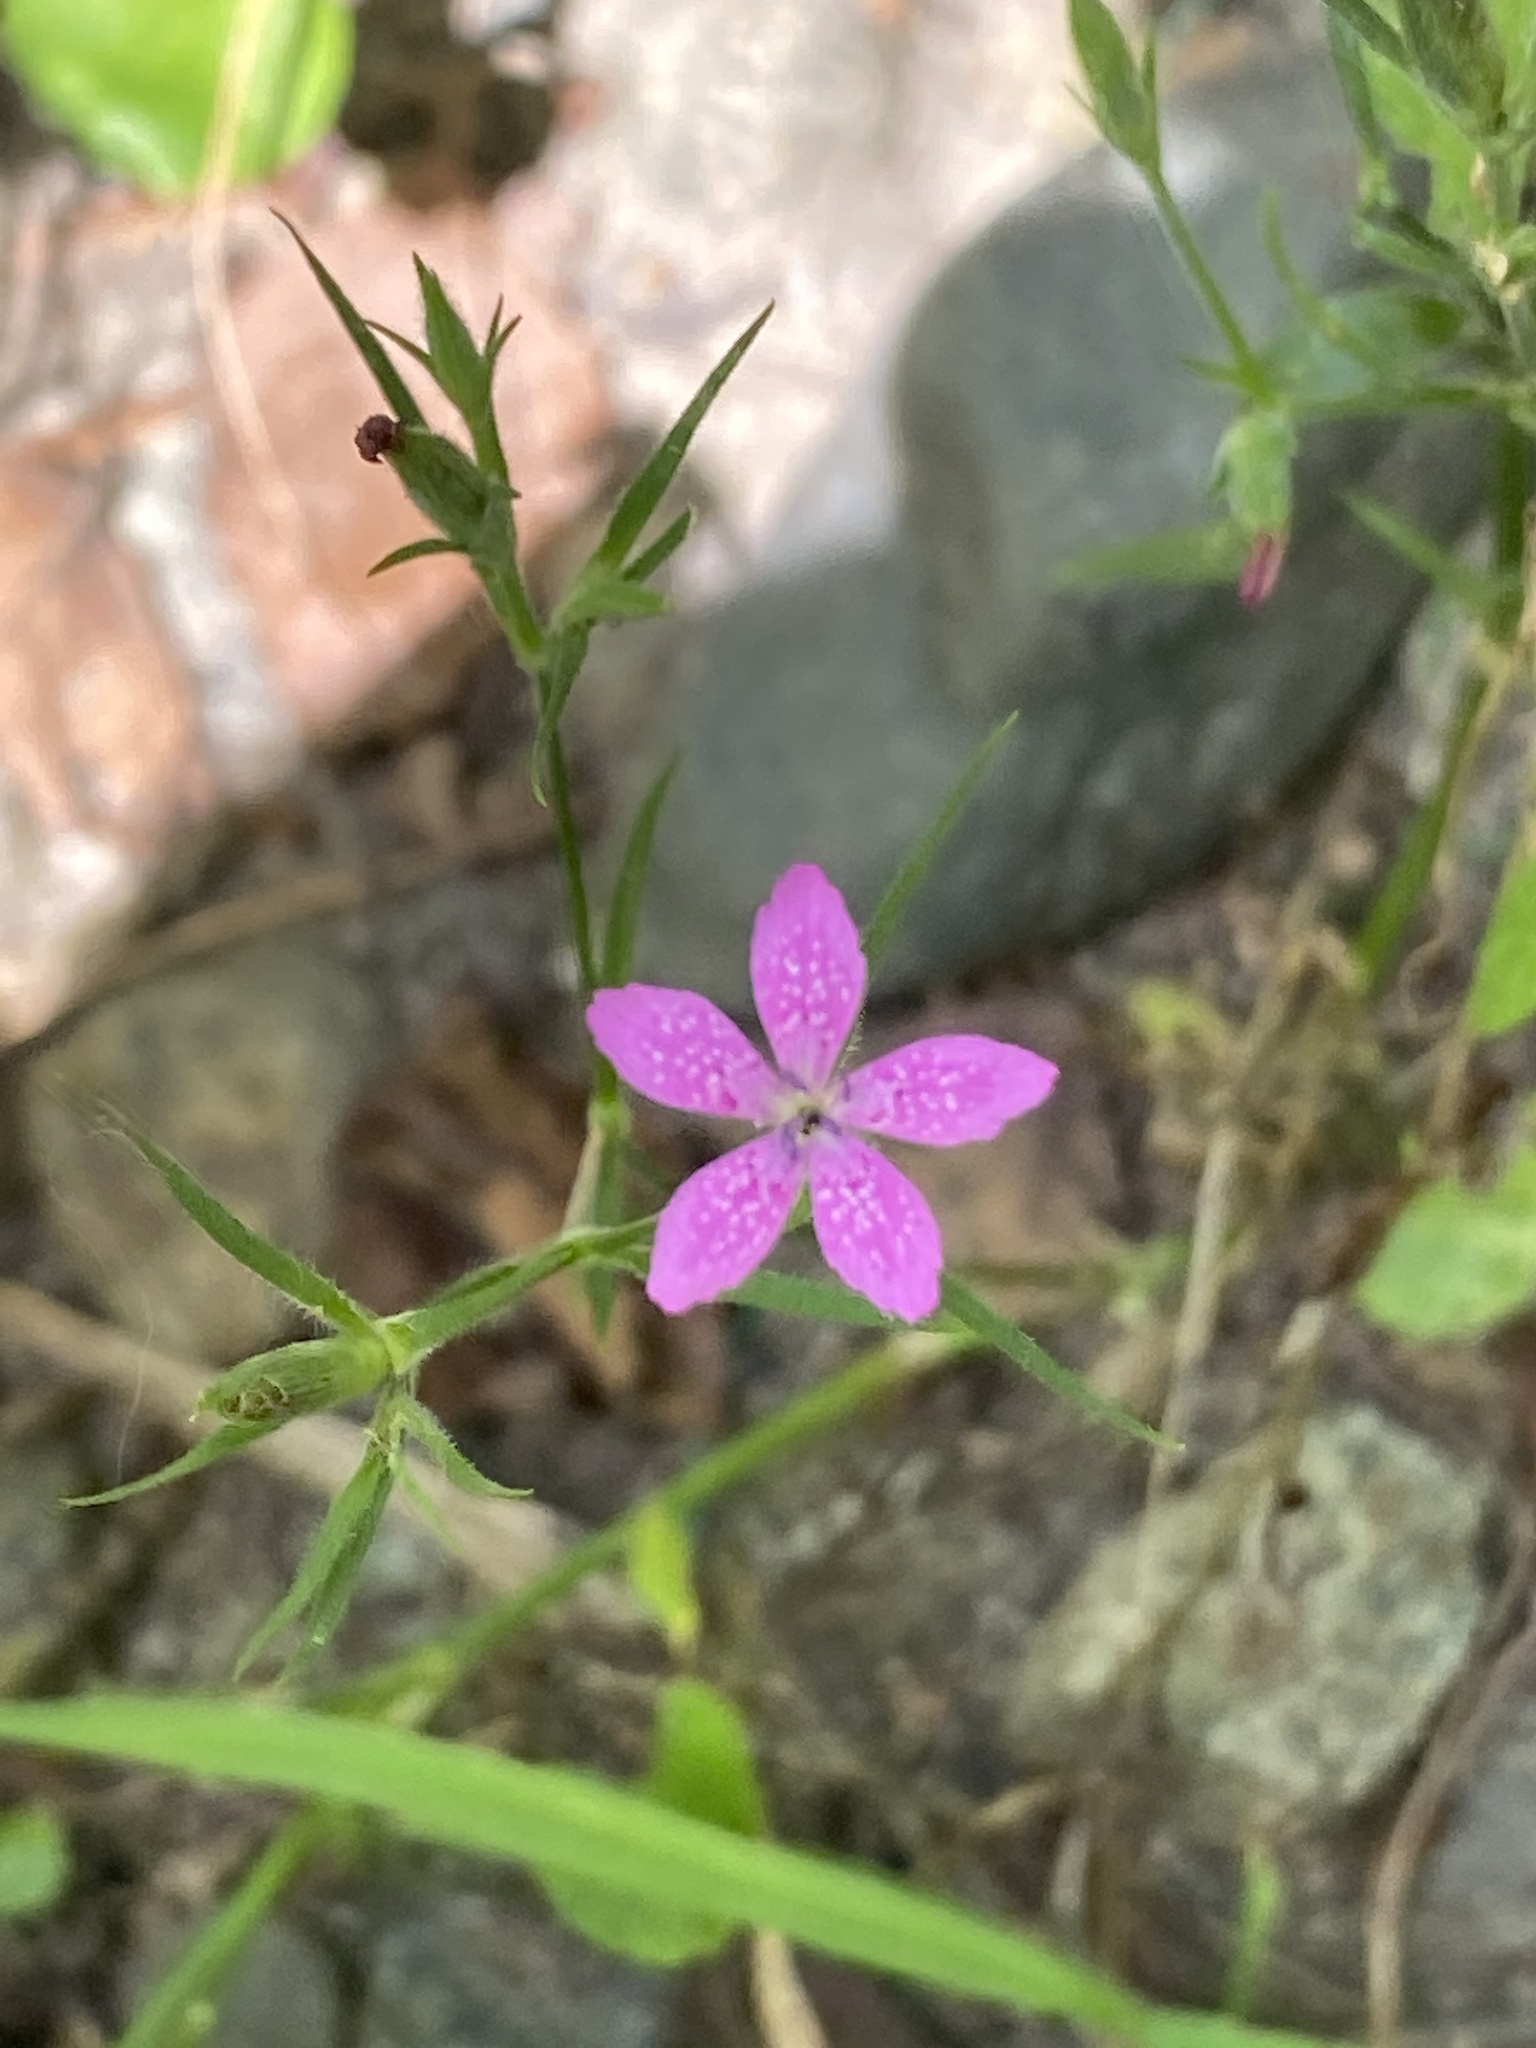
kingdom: Plantae
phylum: Tracheophyta
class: Magnoliopsida
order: Caryophyllales
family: Caryophyllaceae
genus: Dianthus
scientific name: Dianthus armeria
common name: Deptford pink
